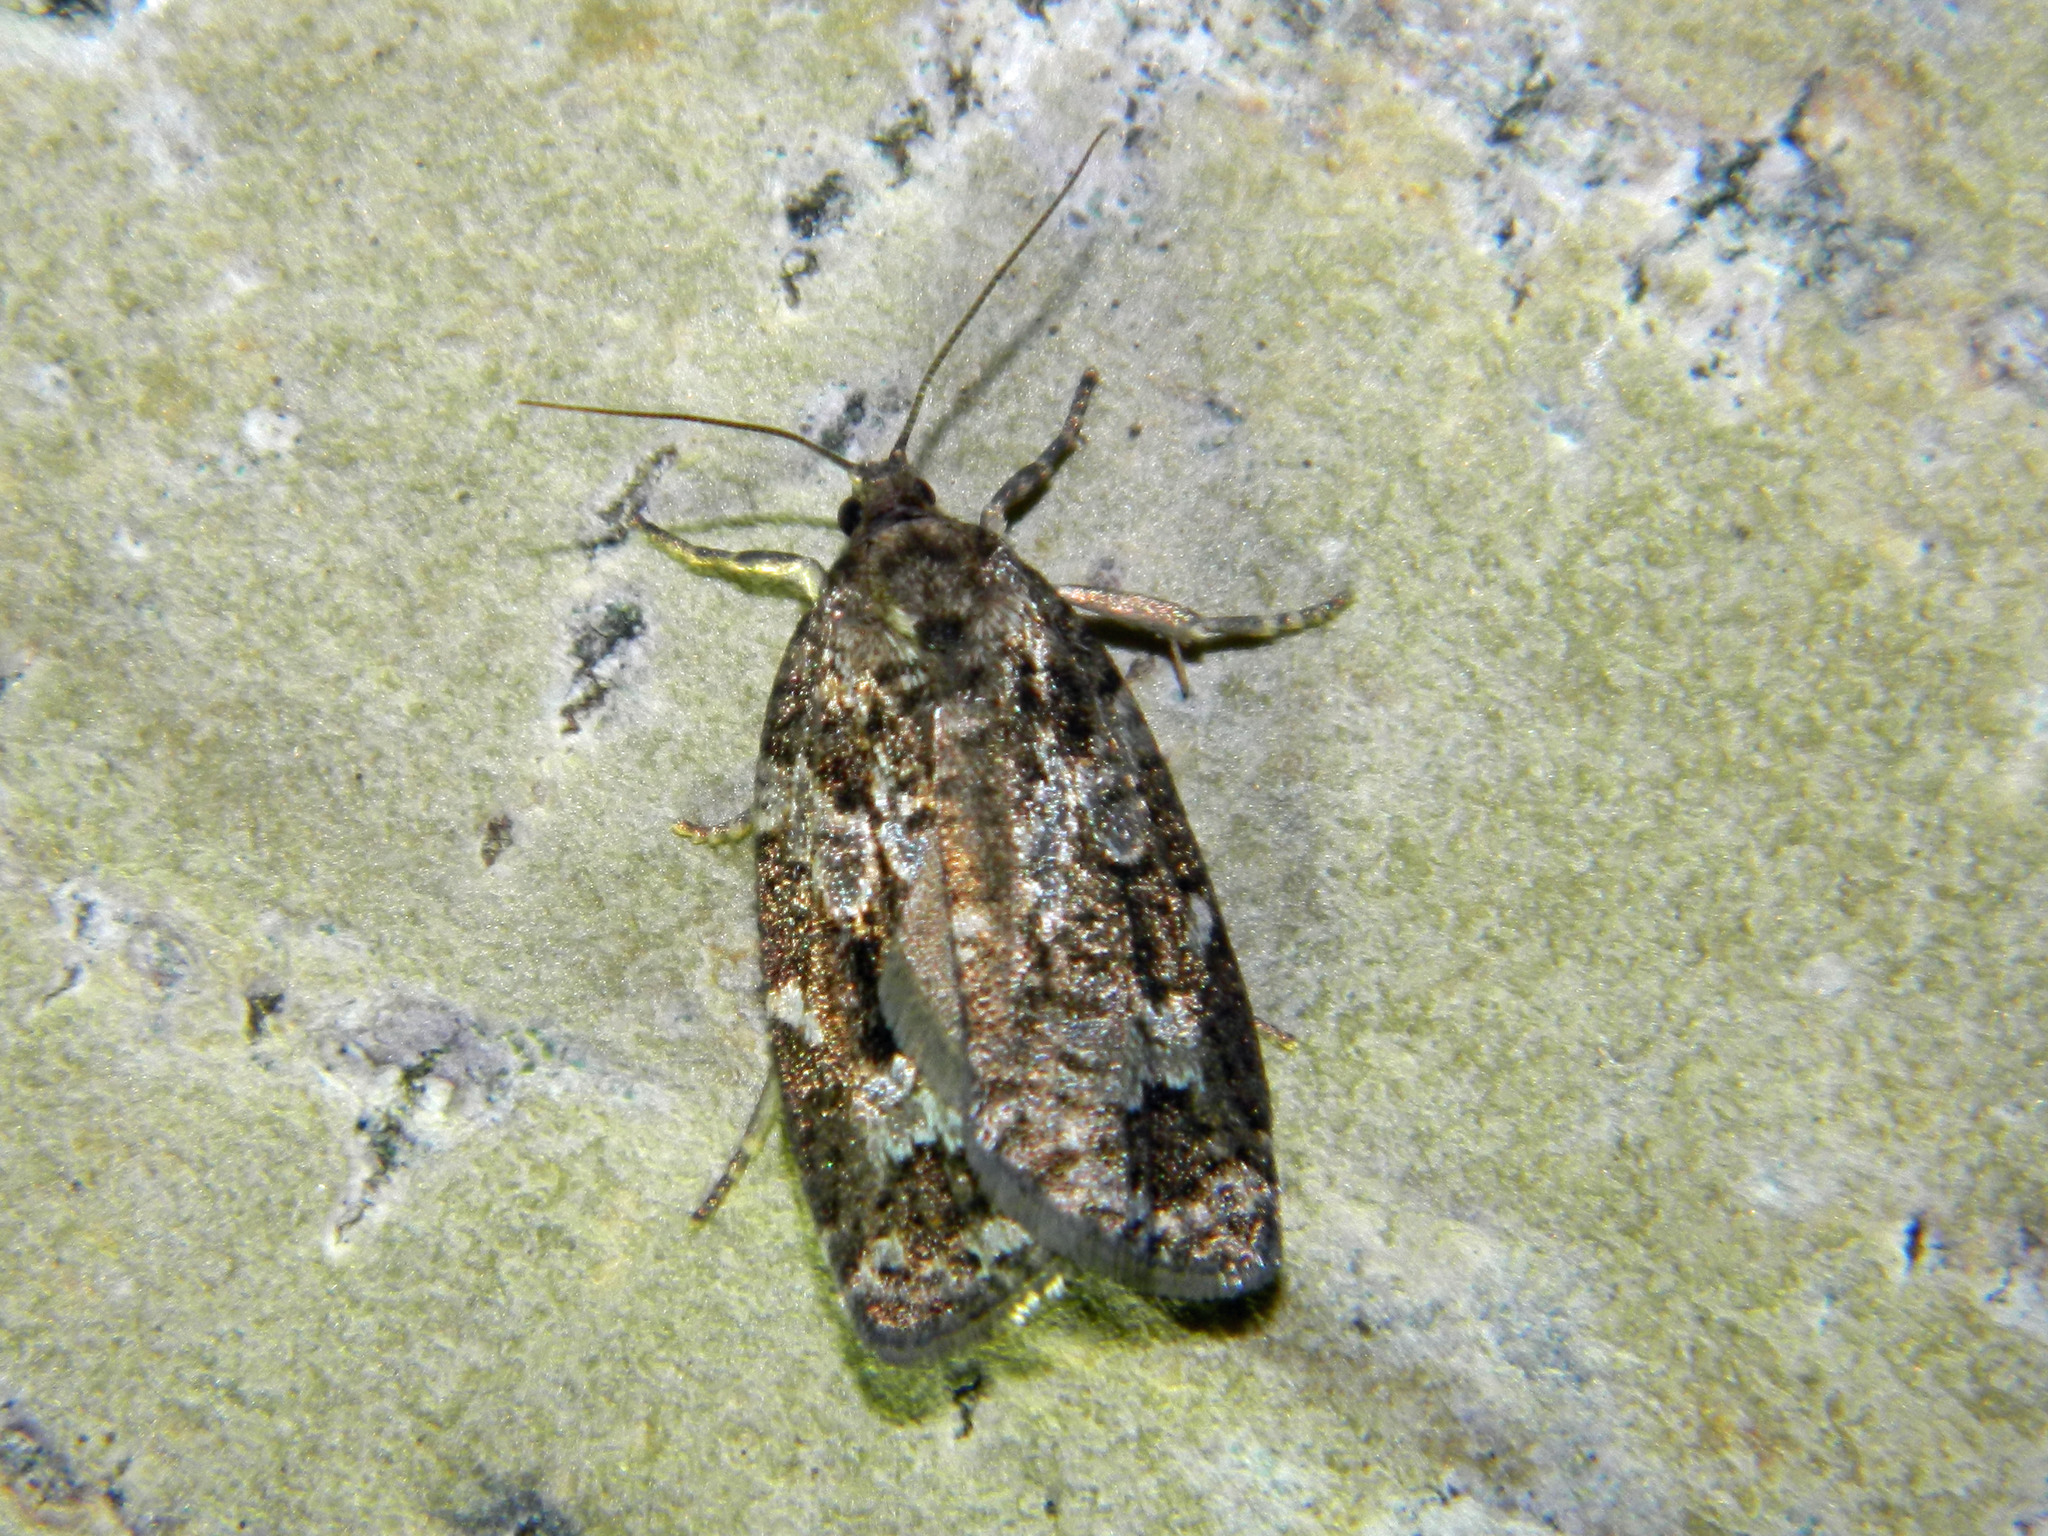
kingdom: Animalia
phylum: Arthropoda
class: Insecta
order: Lepidoptera
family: Tortricidae
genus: Choristoneura
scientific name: Choristoneura fumiferana
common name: Spruce budworm
